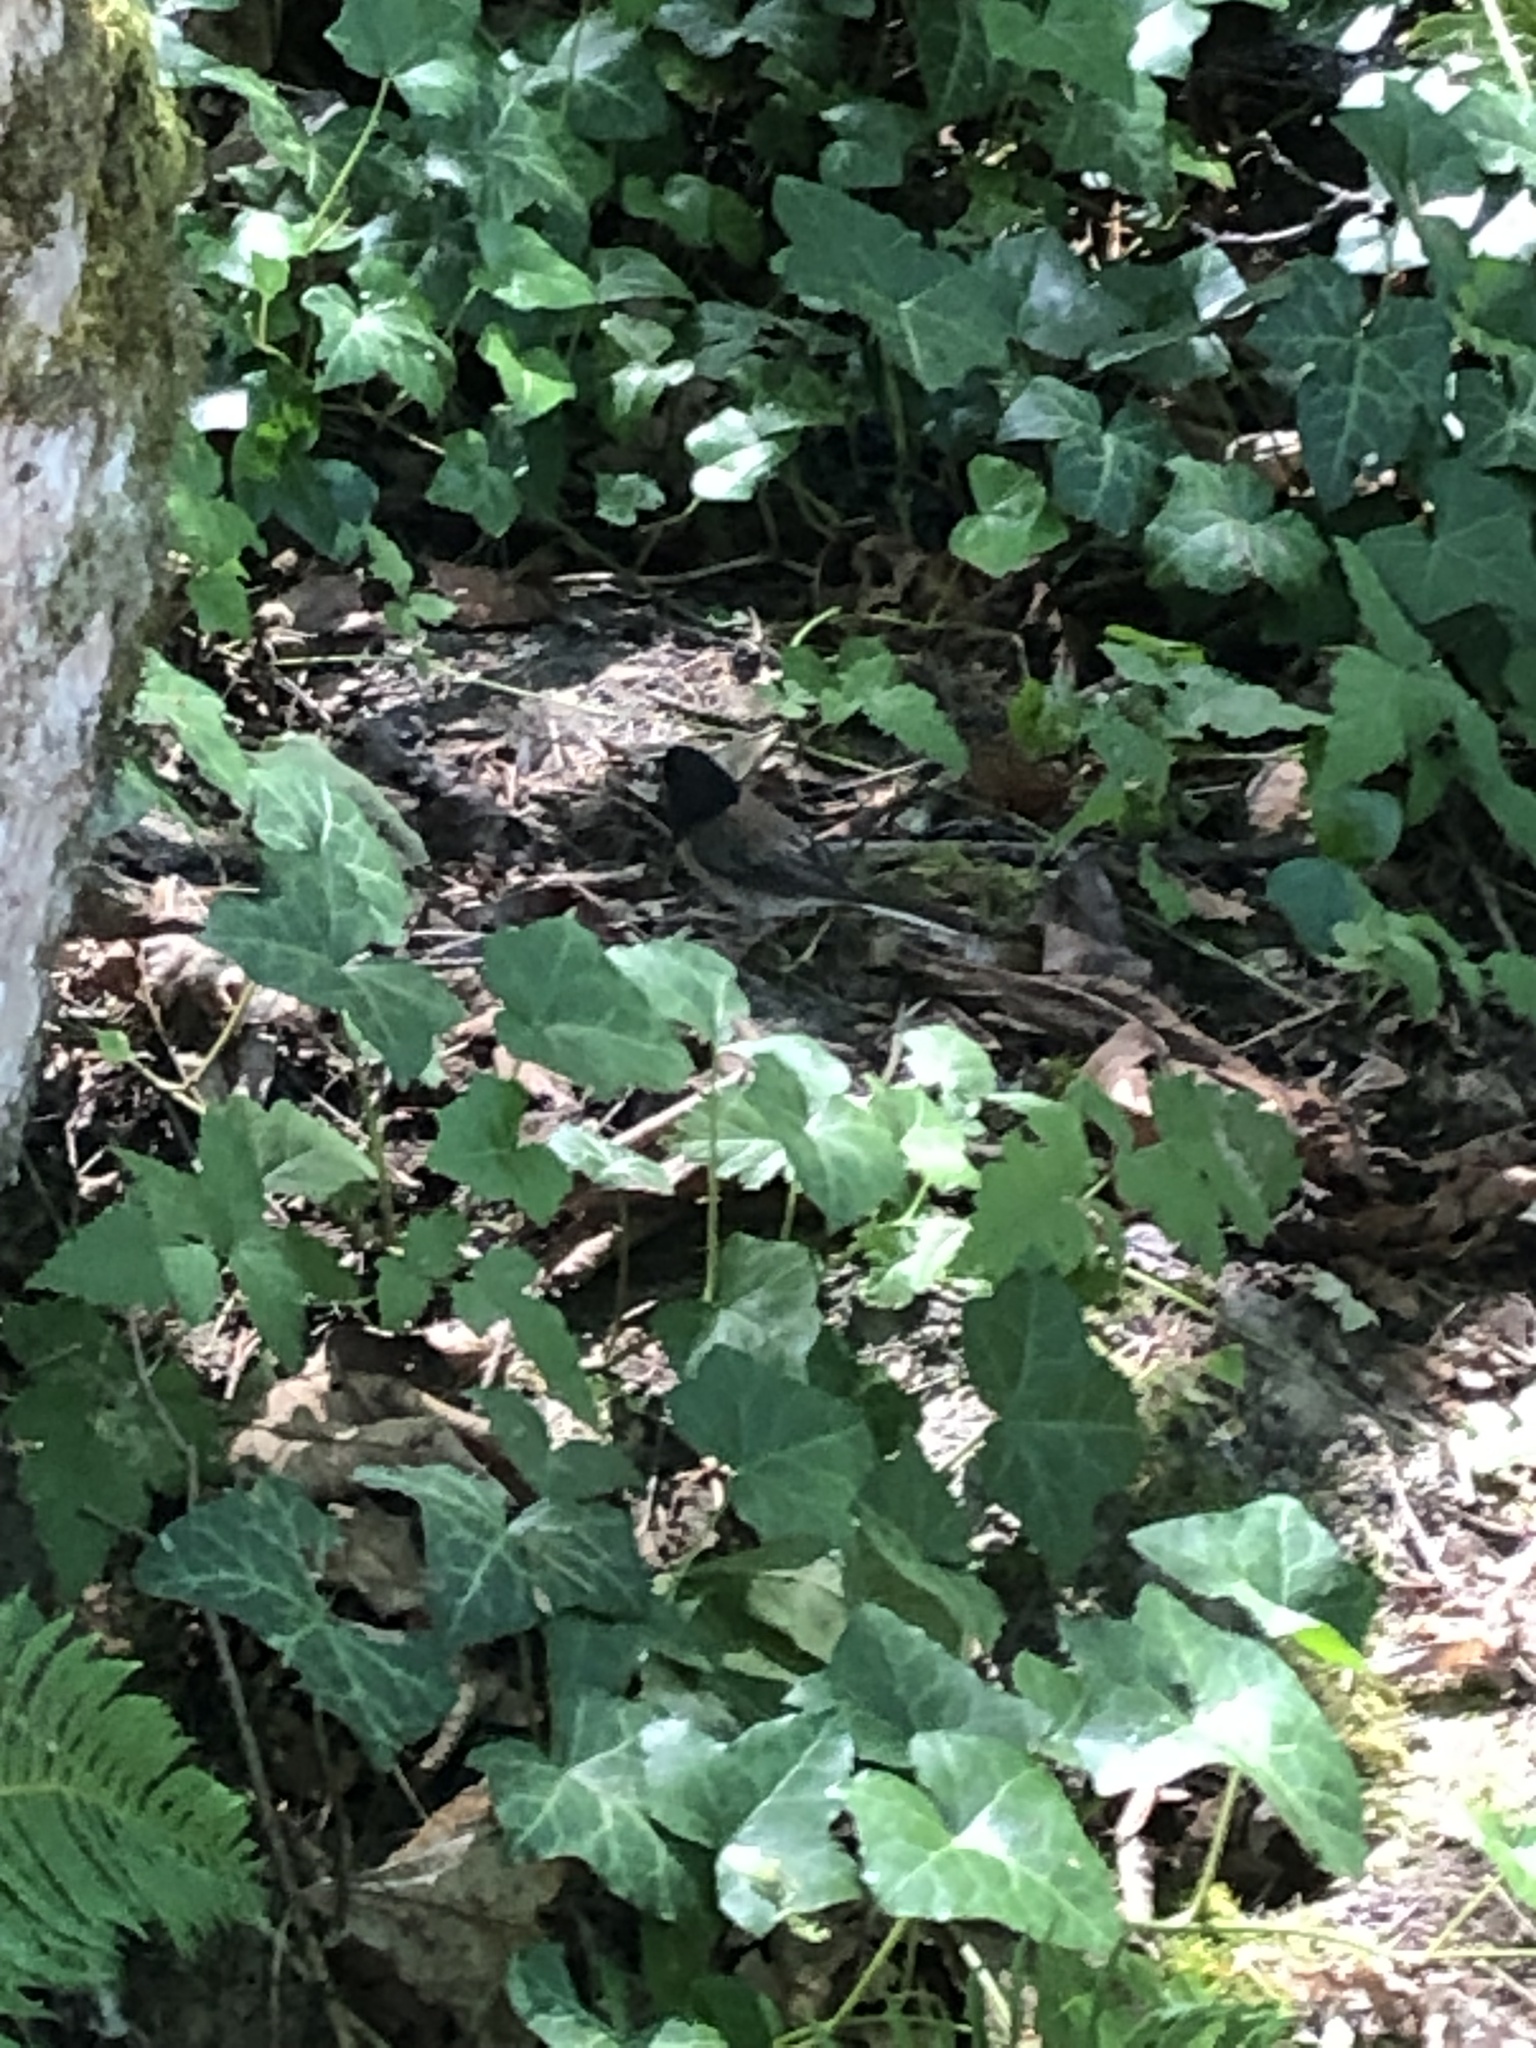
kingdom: Animalia
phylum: Chordata
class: Aves
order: Passeriformes
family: Passerellidae
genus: Junco
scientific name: Junco hyemalis
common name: Dark-eyed junco
